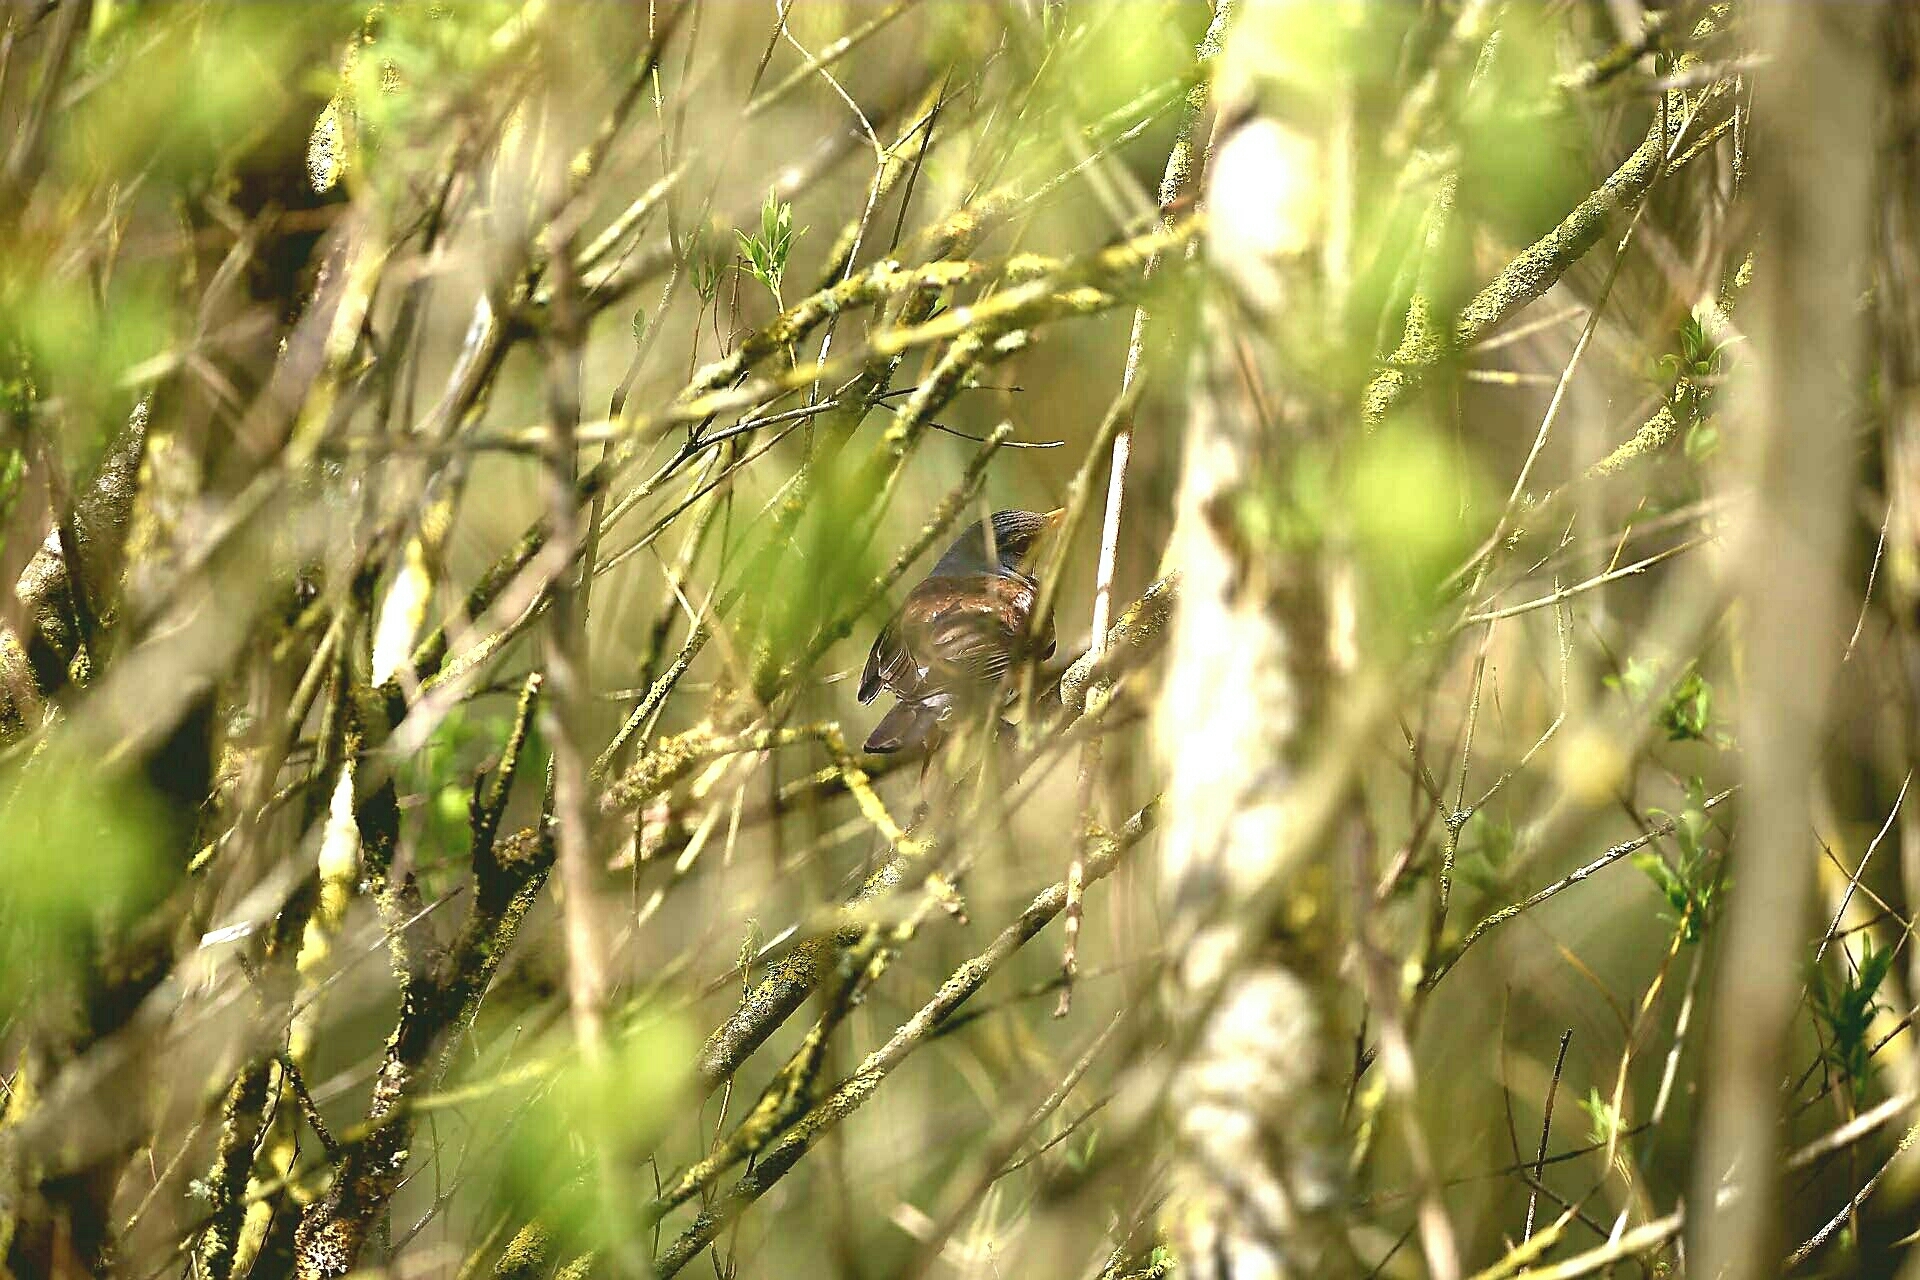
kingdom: Animalia
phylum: Chordata
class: Aves
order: Passeriformes
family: Turdidae
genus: Turdus
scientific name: Turdus pilaris
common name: Fieldfare
